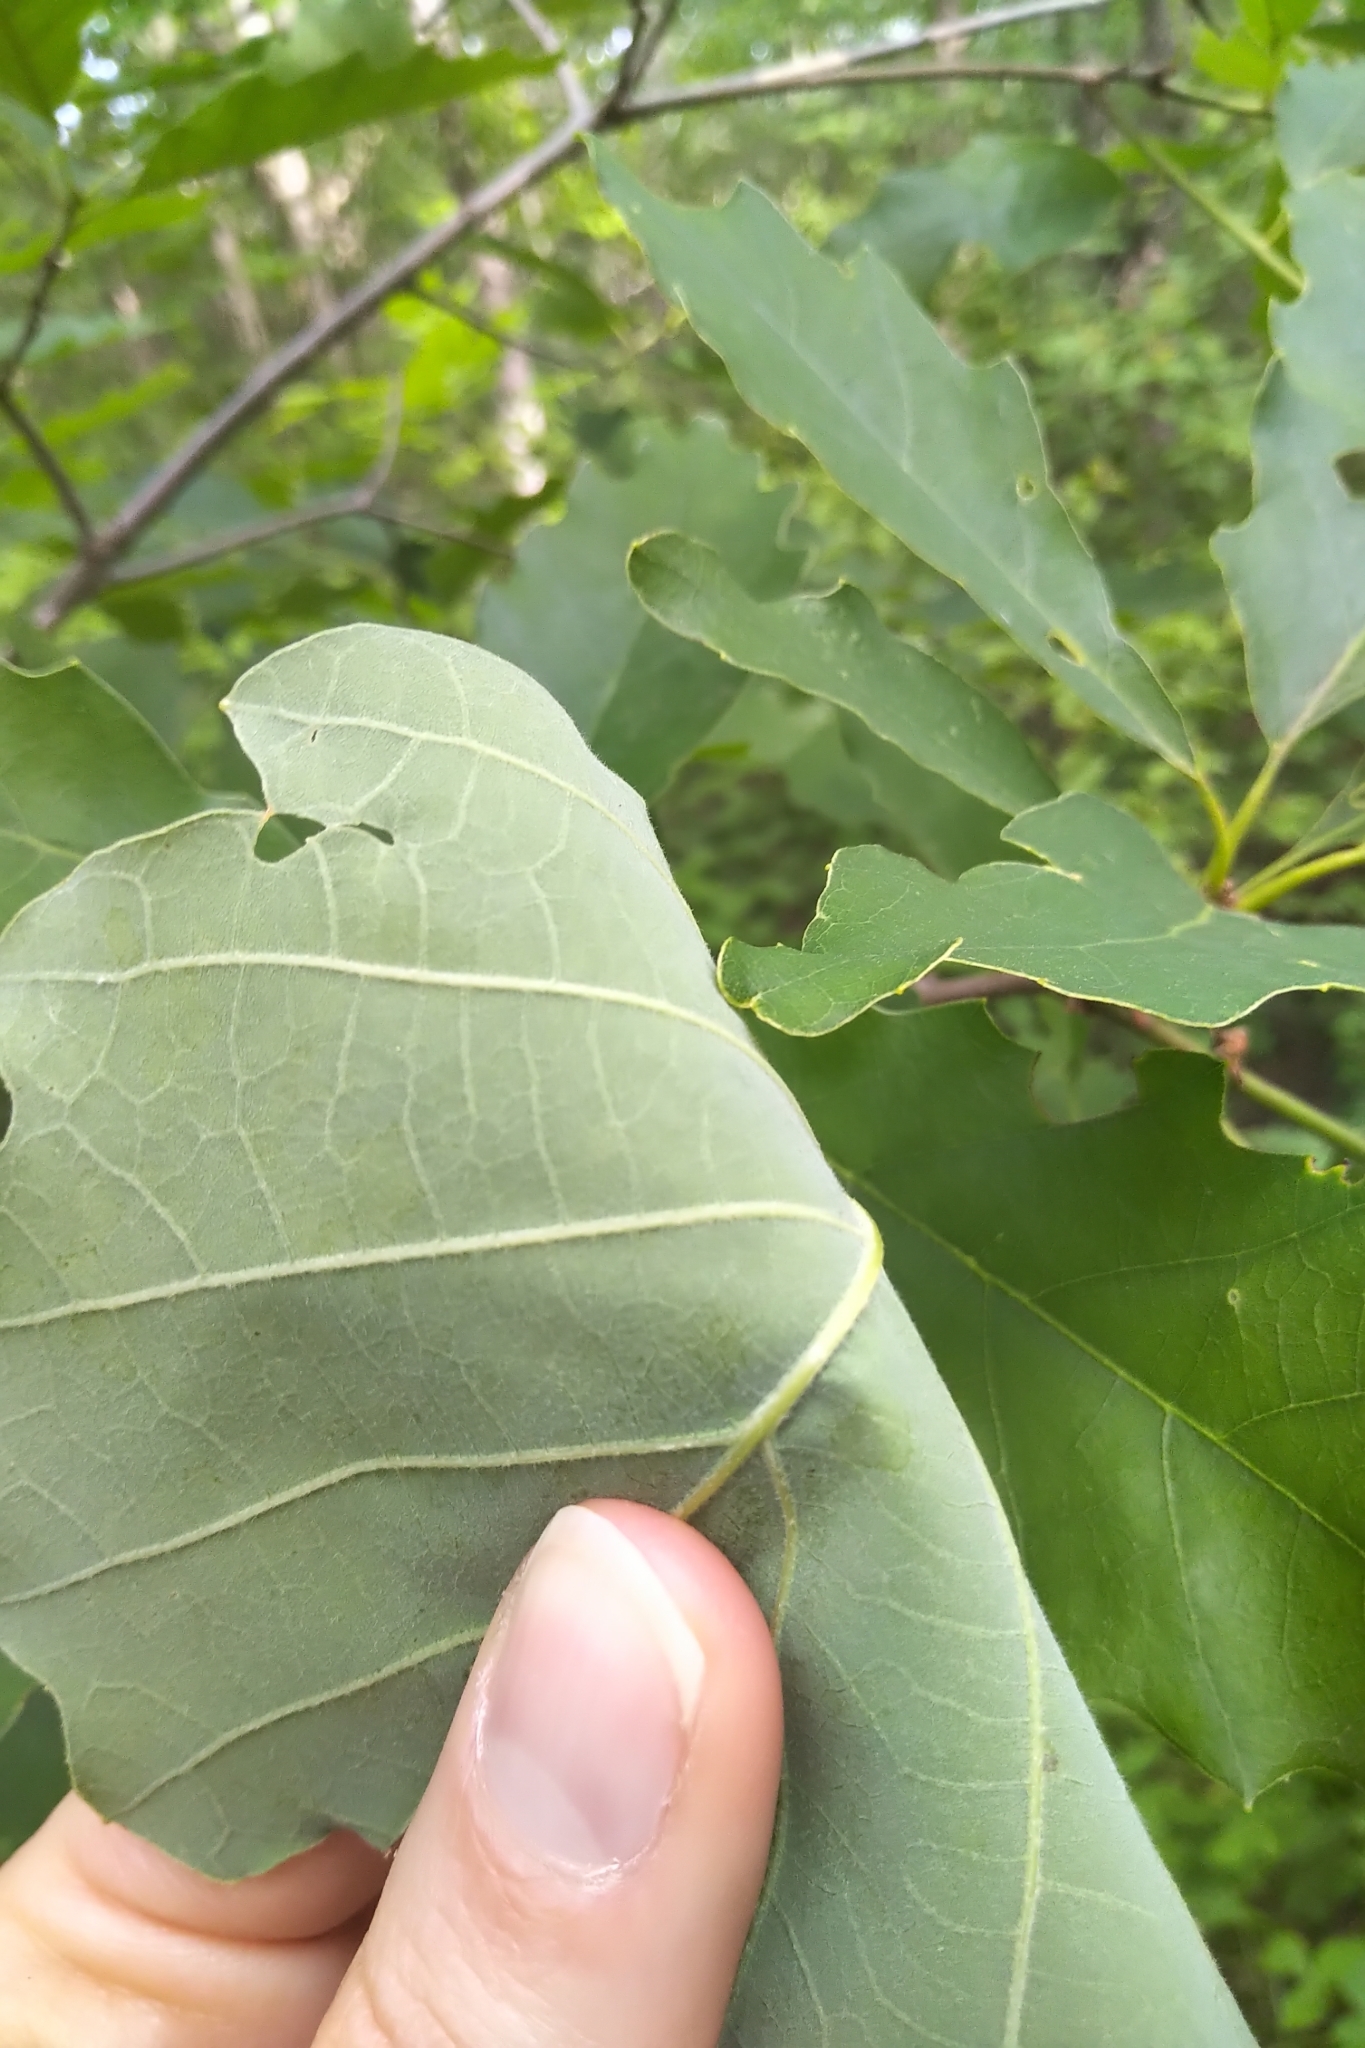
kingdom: Plantae
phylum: Tracheophyta
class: Magnoliopsida
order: Fagales
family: Fagaceae
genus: Quercus
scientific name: Quercus muehlenbergii
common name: Chinkapin oak
